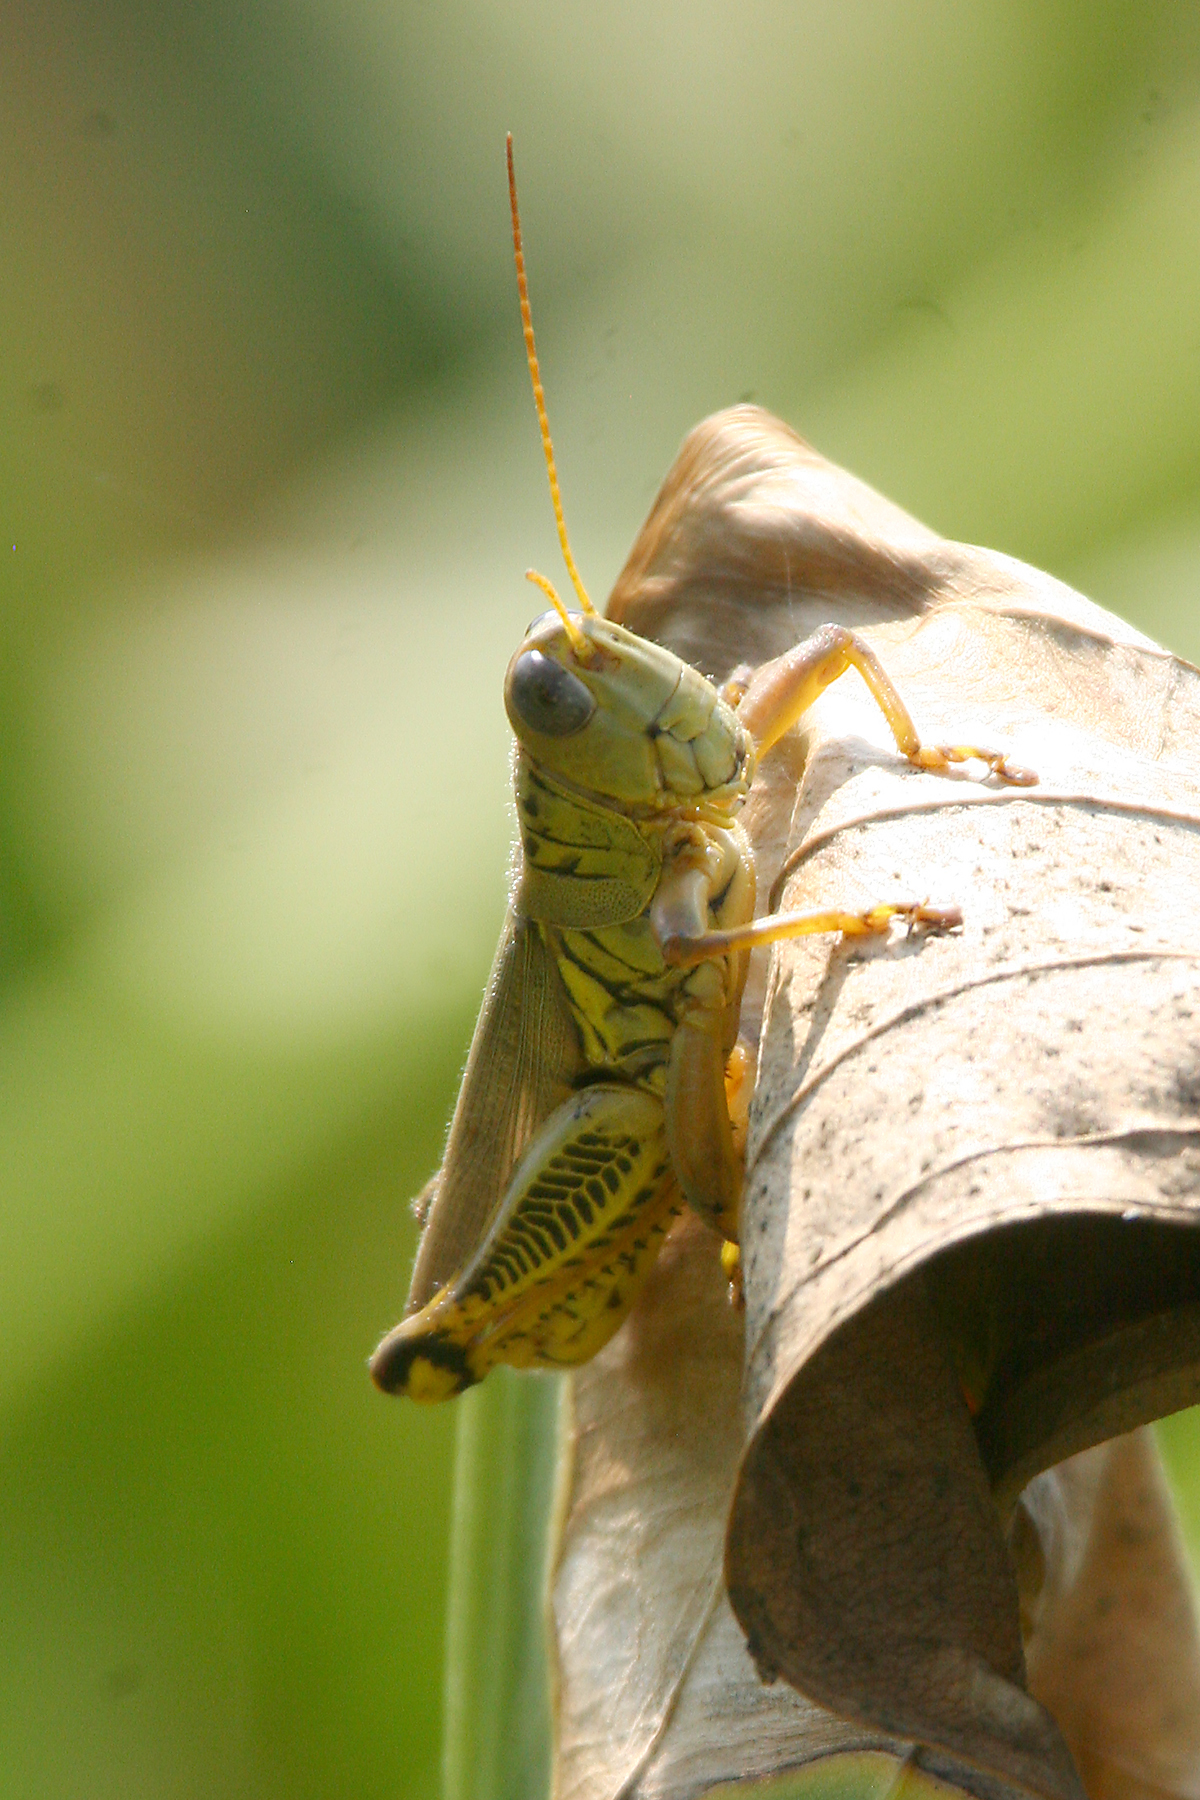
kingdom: Animalia
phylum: Arthropoda
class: Insecta
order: Orthoptera
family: Acrididae
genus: Melanoplus
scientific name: Melanoplus differentialis
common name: Differential grasshopper
